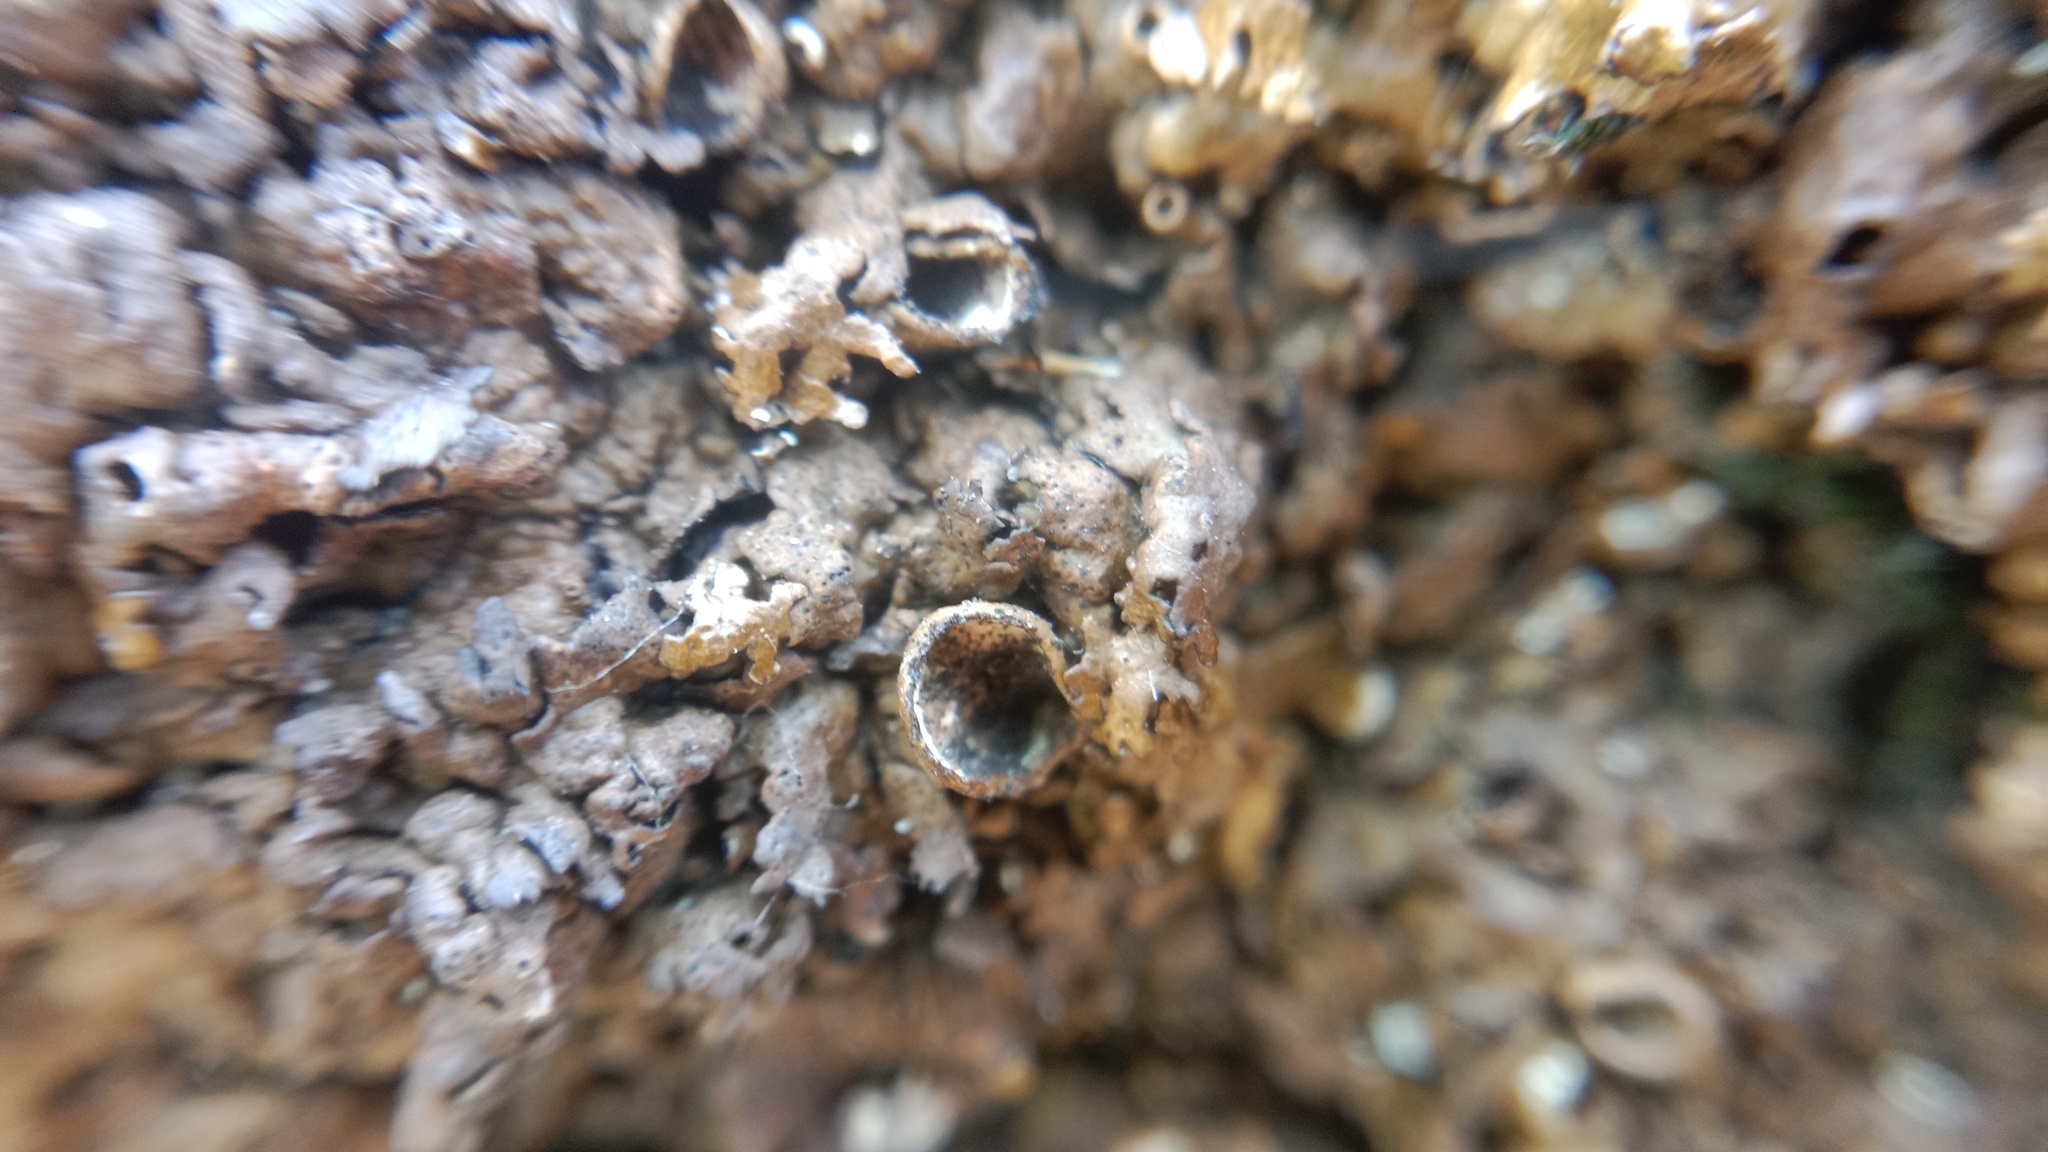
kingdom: Fungi
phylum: Ascomycota
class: Lecanoromycetes
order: Lecanorales
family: Parmeliaceae
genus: Xanthoparmelia
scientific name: Xanthoparmelia pulla
